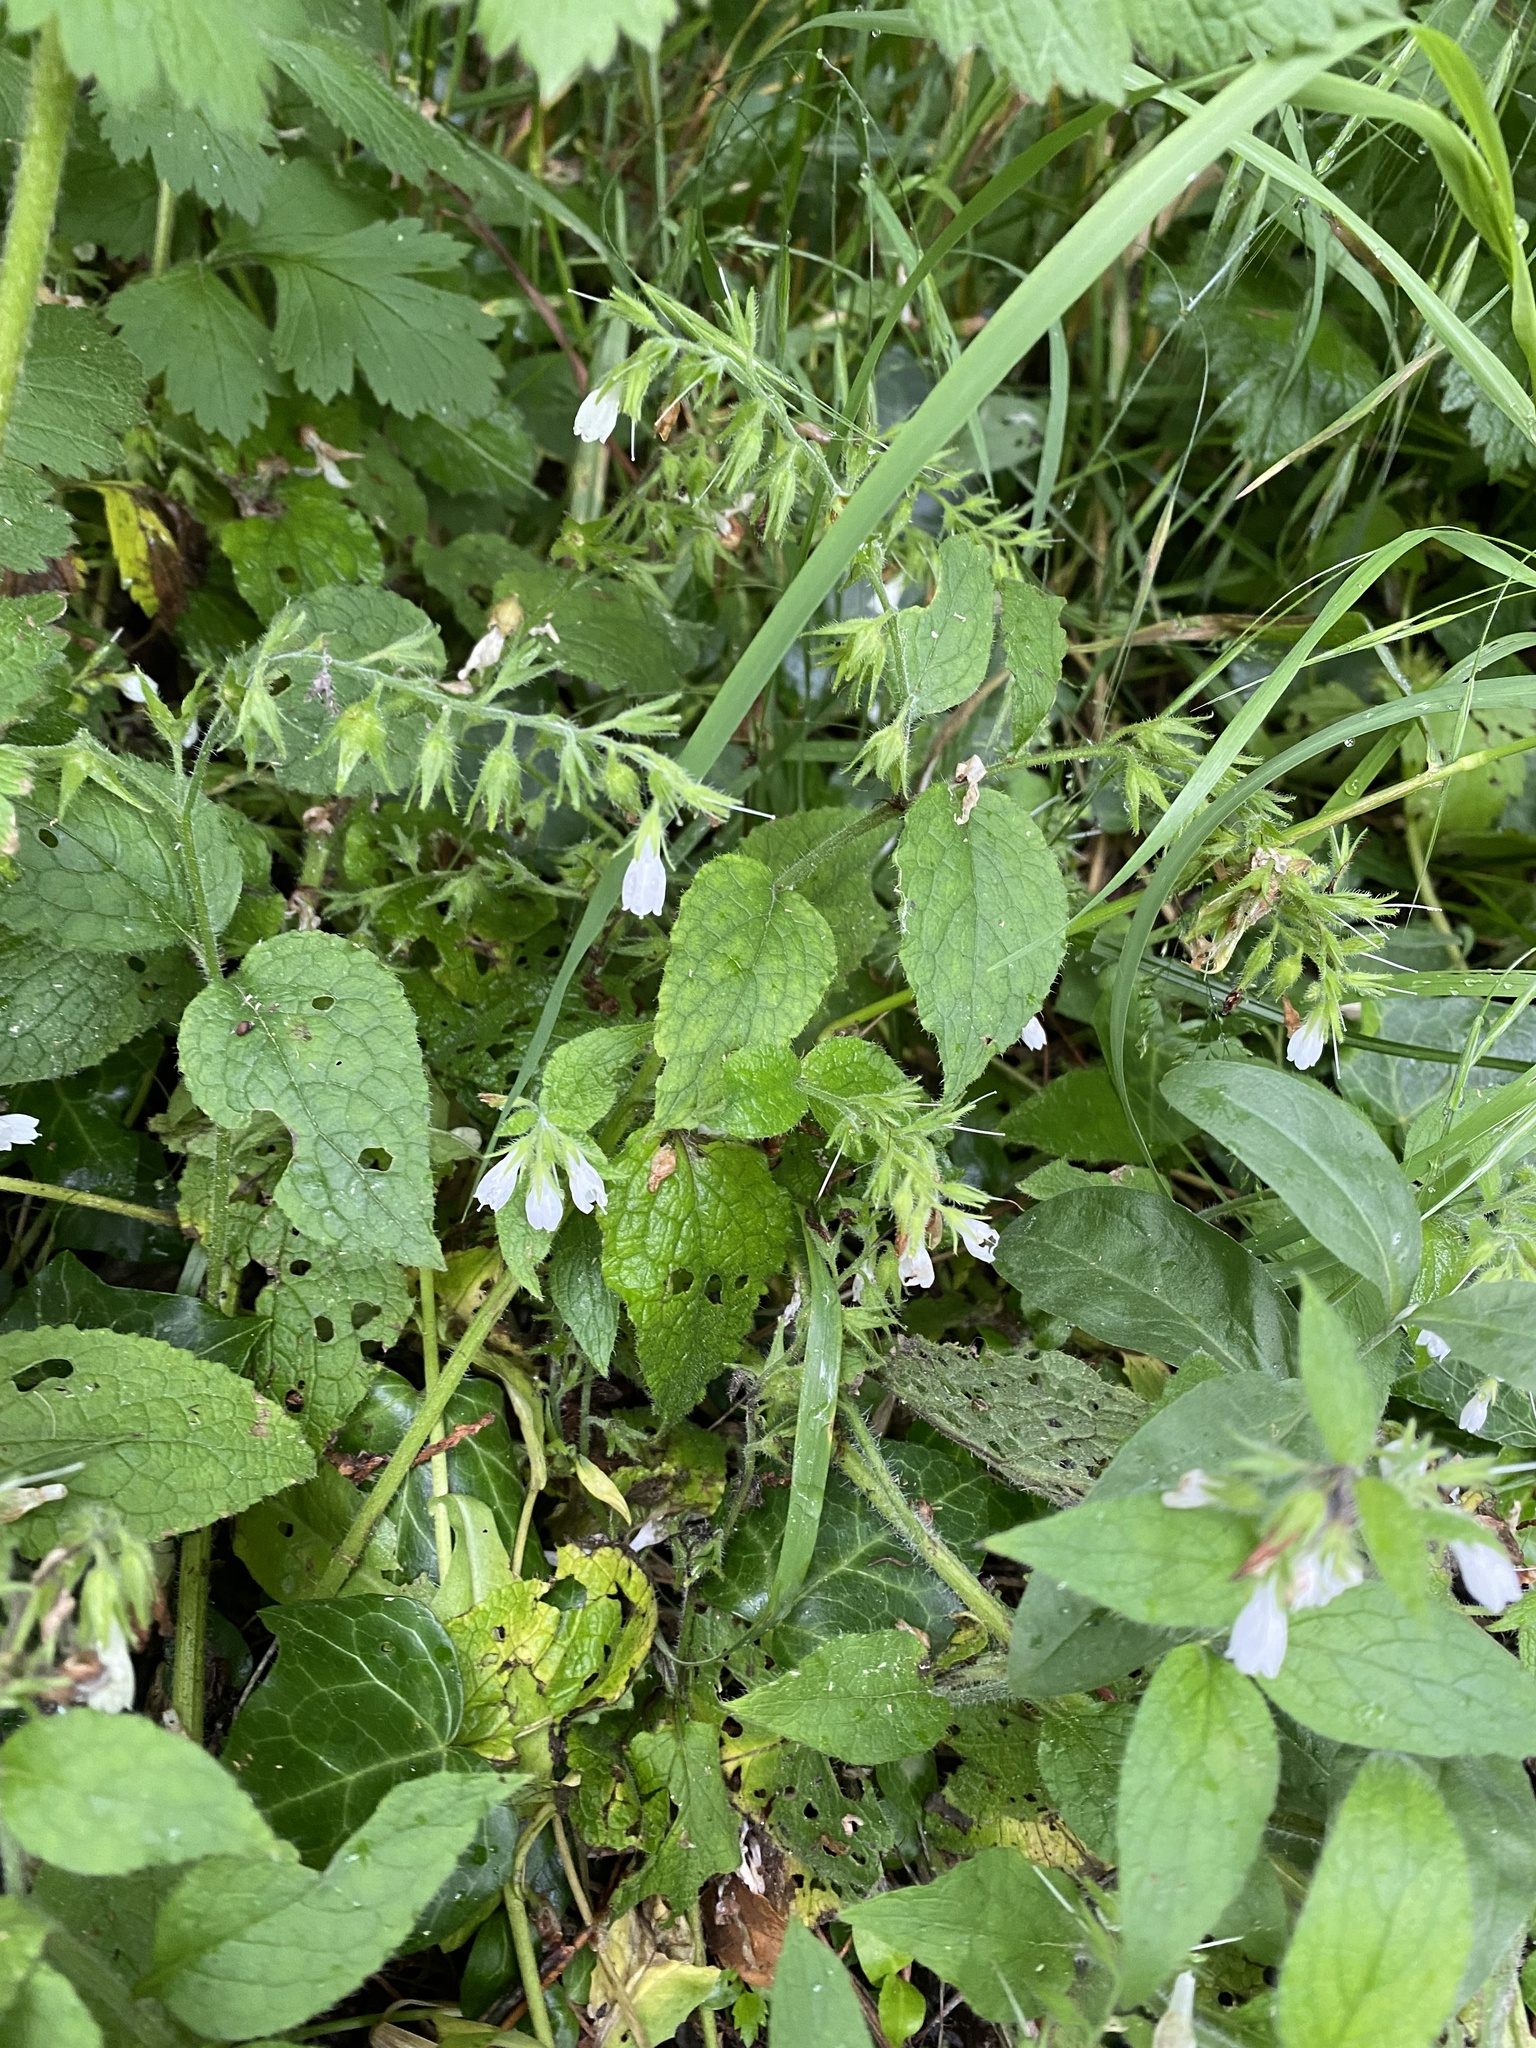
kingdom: Plantae
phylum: Tracheophyta
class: Magnoliopsida
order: Boraginales
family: Boraginaceae
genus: Symphytum
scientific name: Symphytum tauricum
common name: Crimean comfrey
